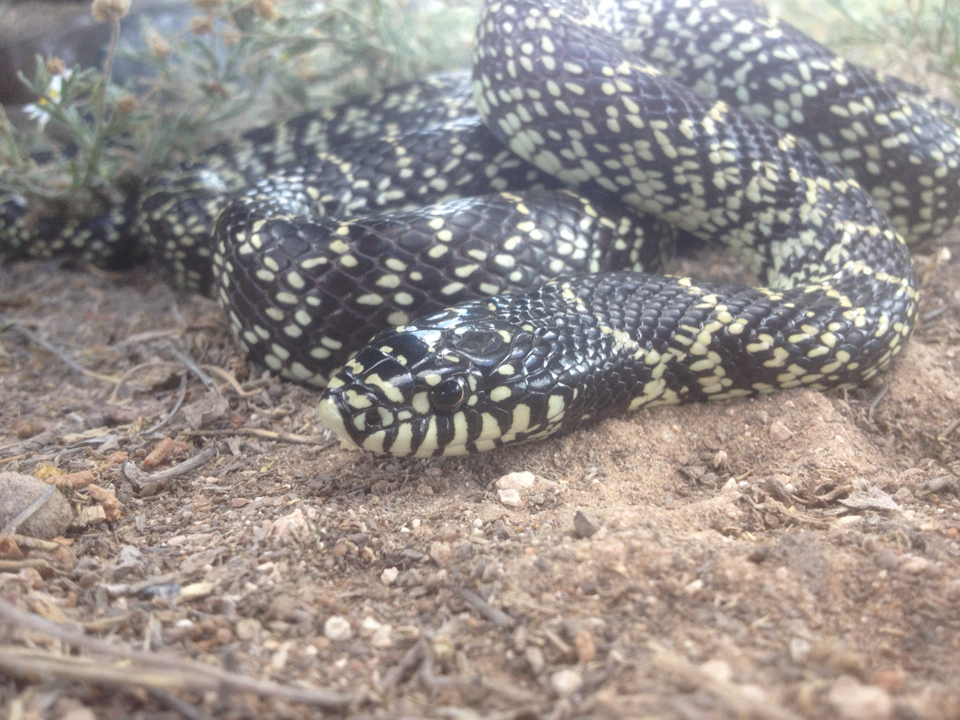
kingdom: Animalia
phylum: Chordata
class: Squamata
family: Colubridae
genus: Lampropeltis
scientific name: Lampropeltis splendida
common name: Desert kingsnake
